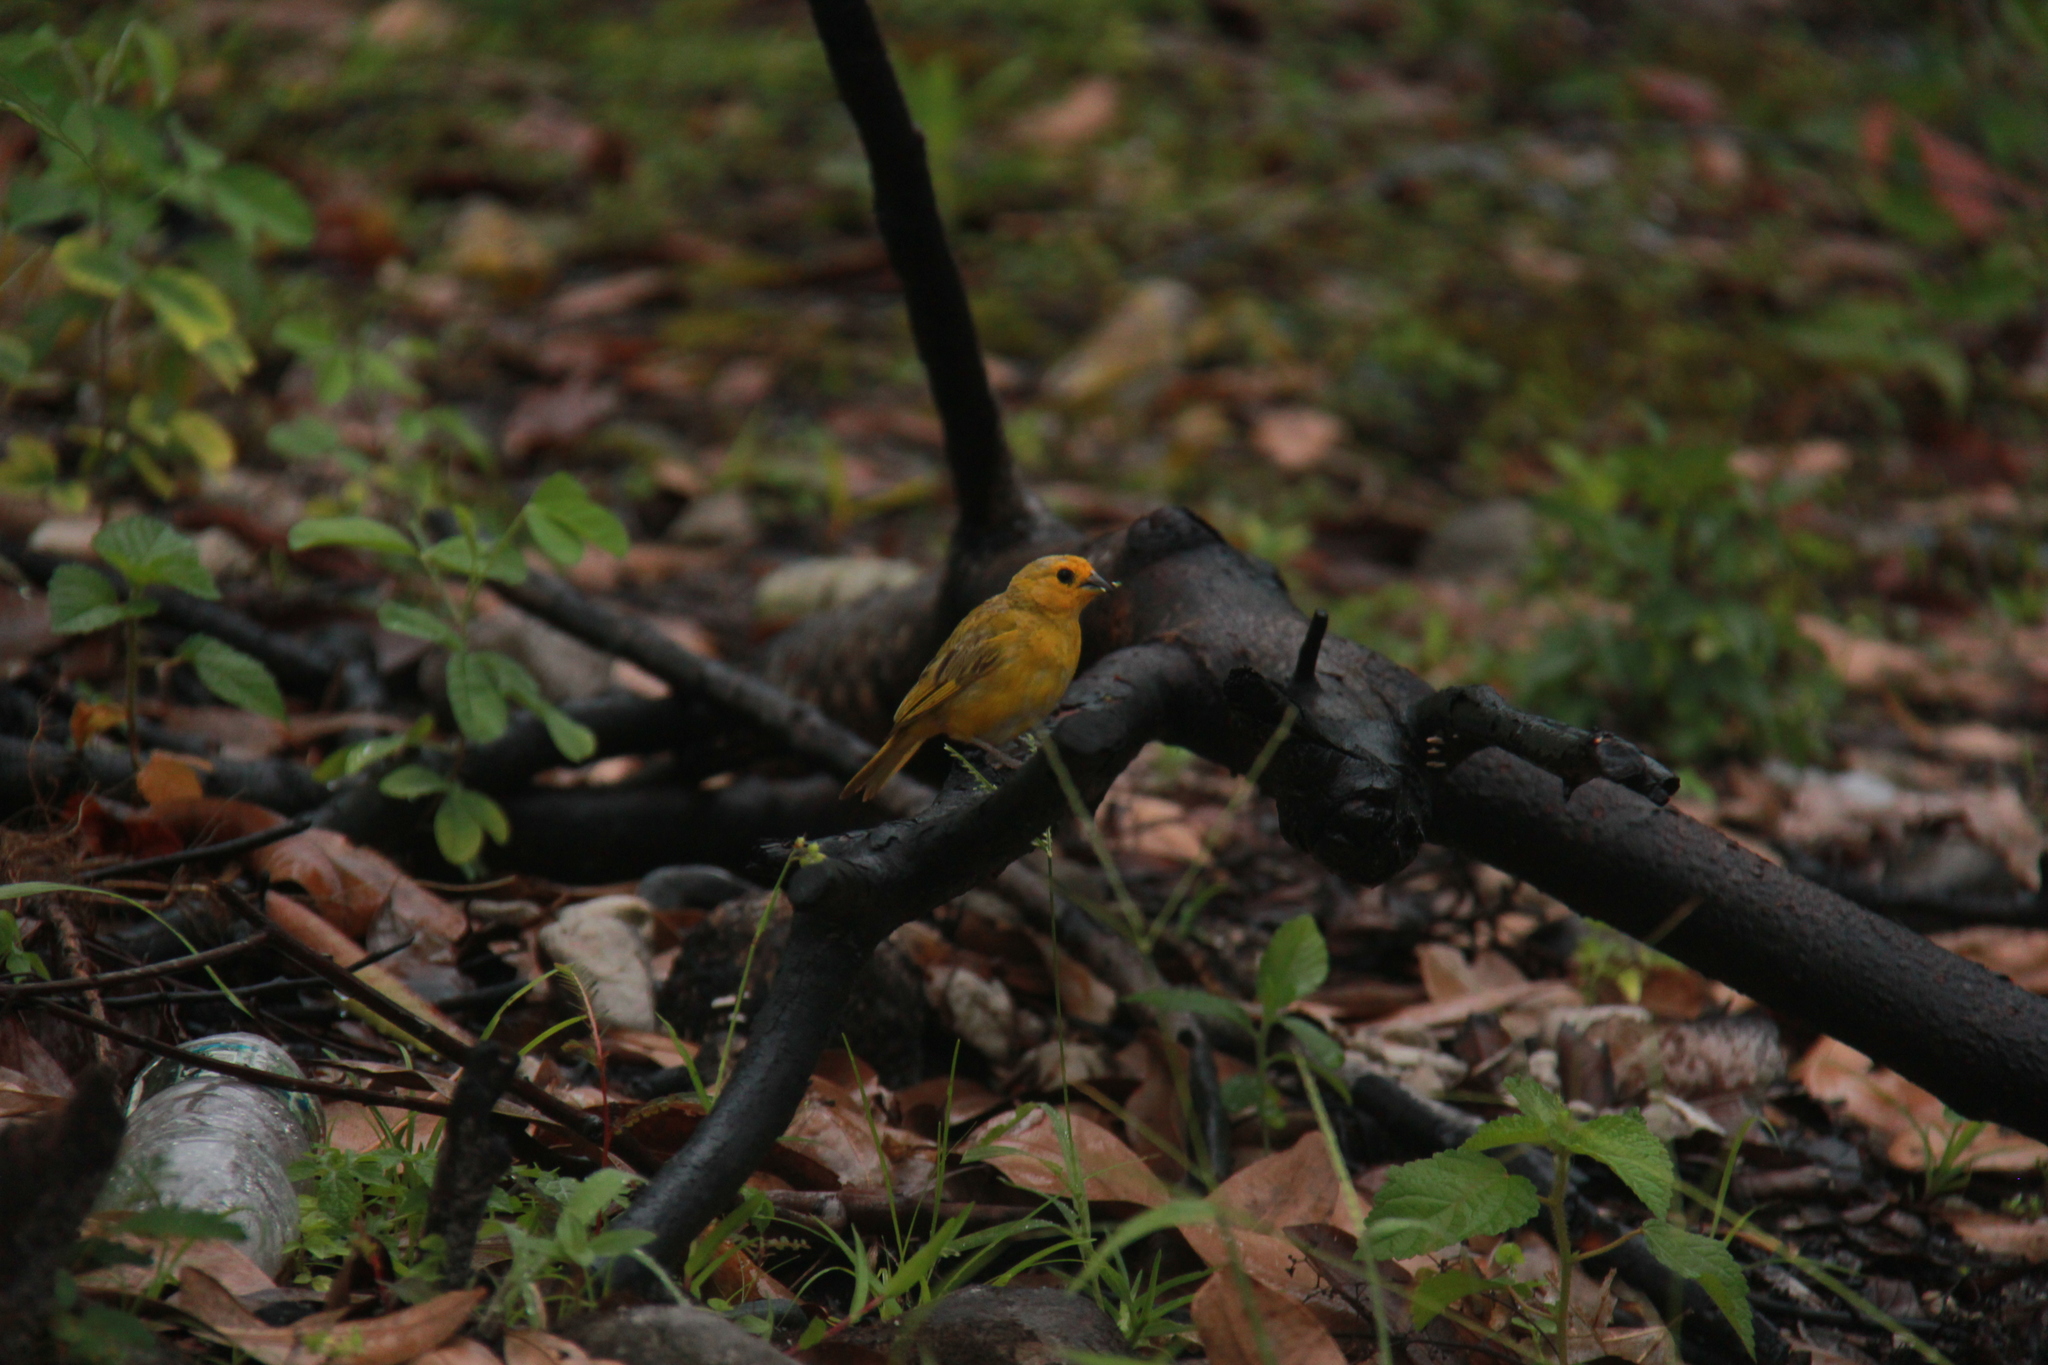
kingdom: Animalia
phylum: Chordata
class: Aves
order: Passeriformes
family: Thraupidae
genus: Sicalis
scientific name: Sicalis flaveola
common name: Saffron finch
